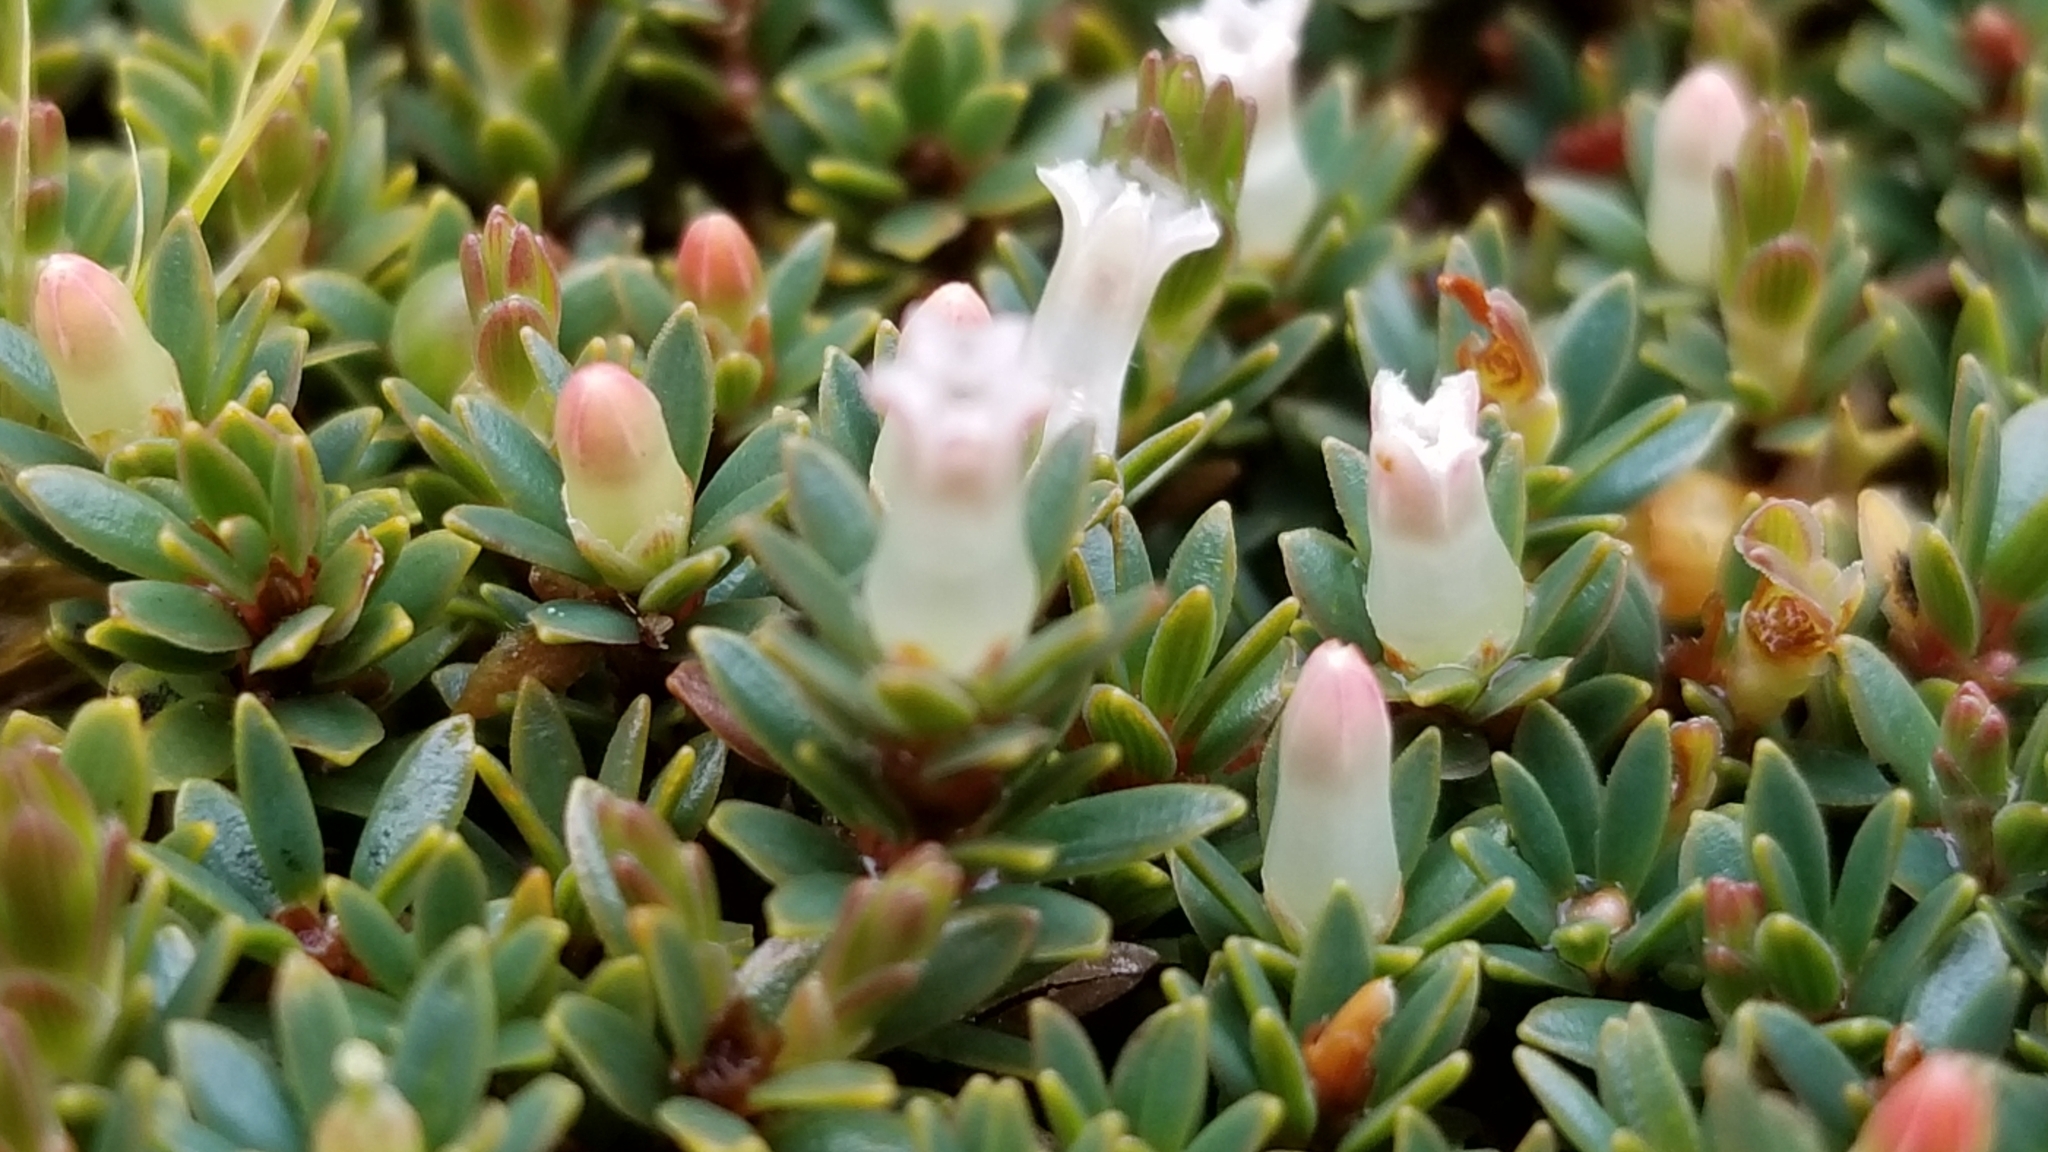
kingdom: Plantae
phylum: Tracheophyta
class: Magnoliopsida
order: Ericales
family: Ericaceae
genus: Pentachondra
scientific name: Pentachondra pumila
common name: Carpet-heath
